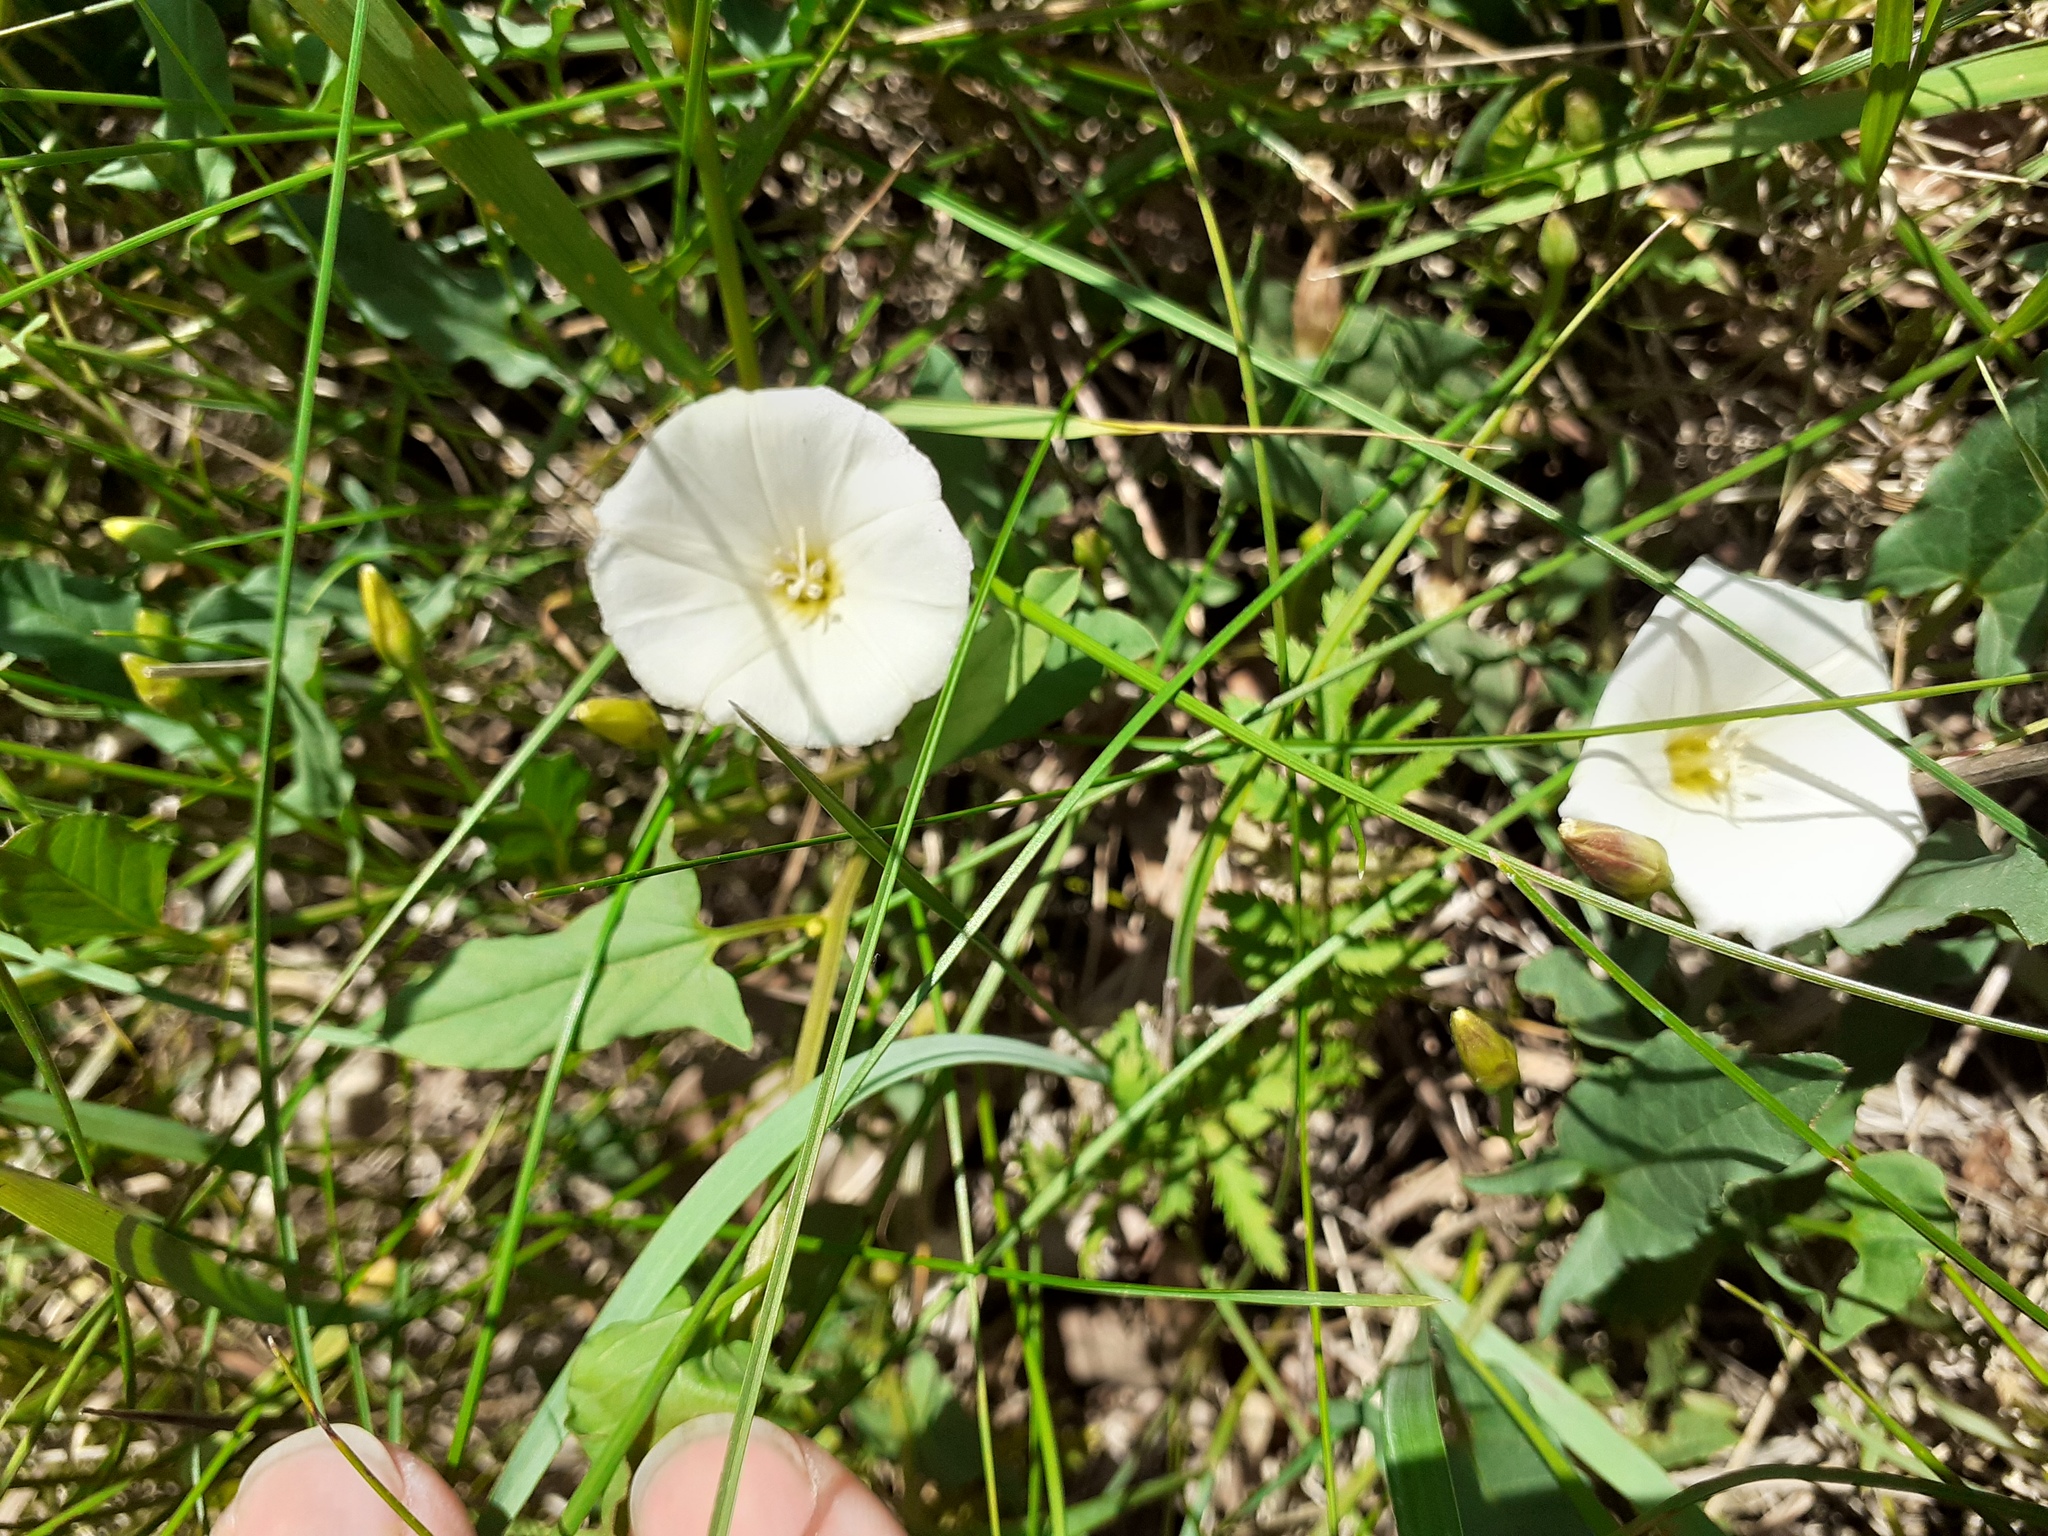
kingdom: Plantae
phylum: Tracheophyta
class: Magnoliopsida
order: Solanales
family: Convolvulaceae
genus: Convolvulus
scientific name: Convolvulus arvensis
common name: Field bindweed
